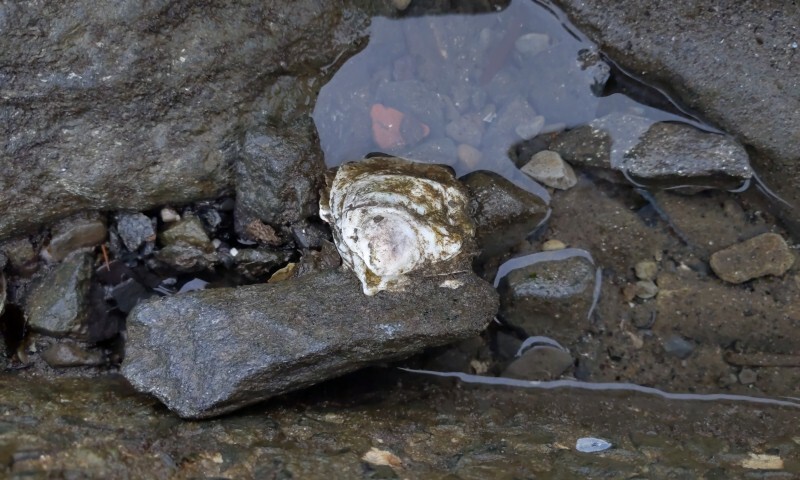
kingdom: Animalia
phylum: Mollusca
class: Bivalvia
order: Ostreida
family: Ostreidae
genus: Crassostrea
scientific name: Crassostrea virginica
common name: American oyster
